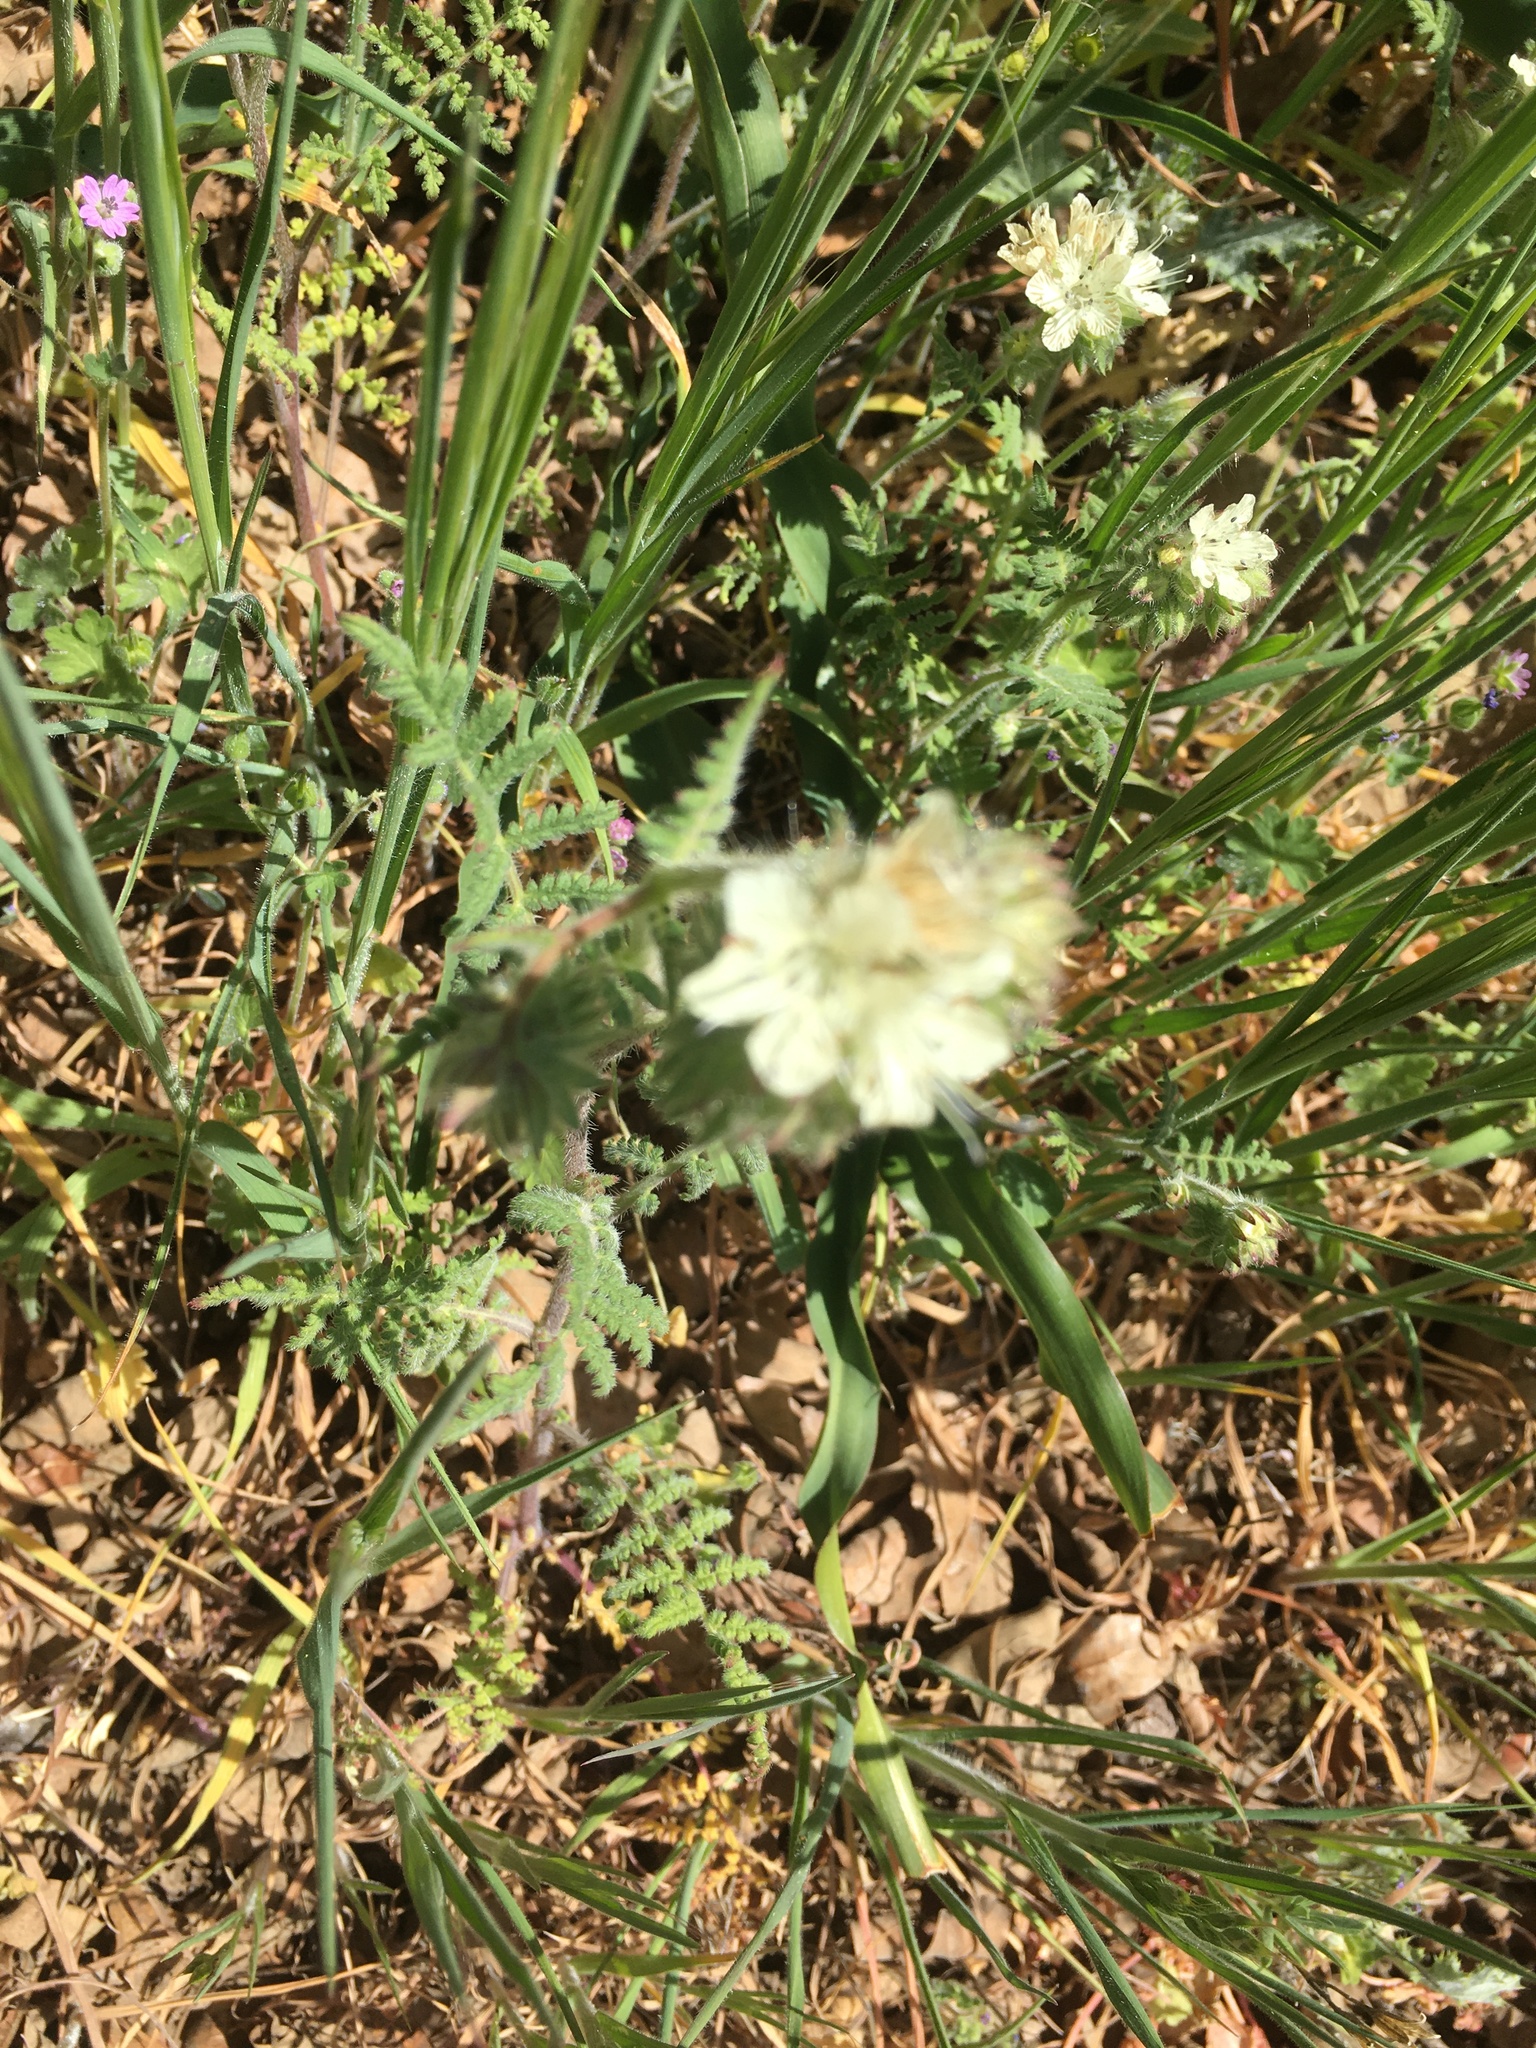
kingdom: Plantae
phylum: Tracheophyta
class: Magnoliopsida
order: Boraginales
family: Hydrophyllaceae
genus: Phacelia
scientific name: Phacelia distans
